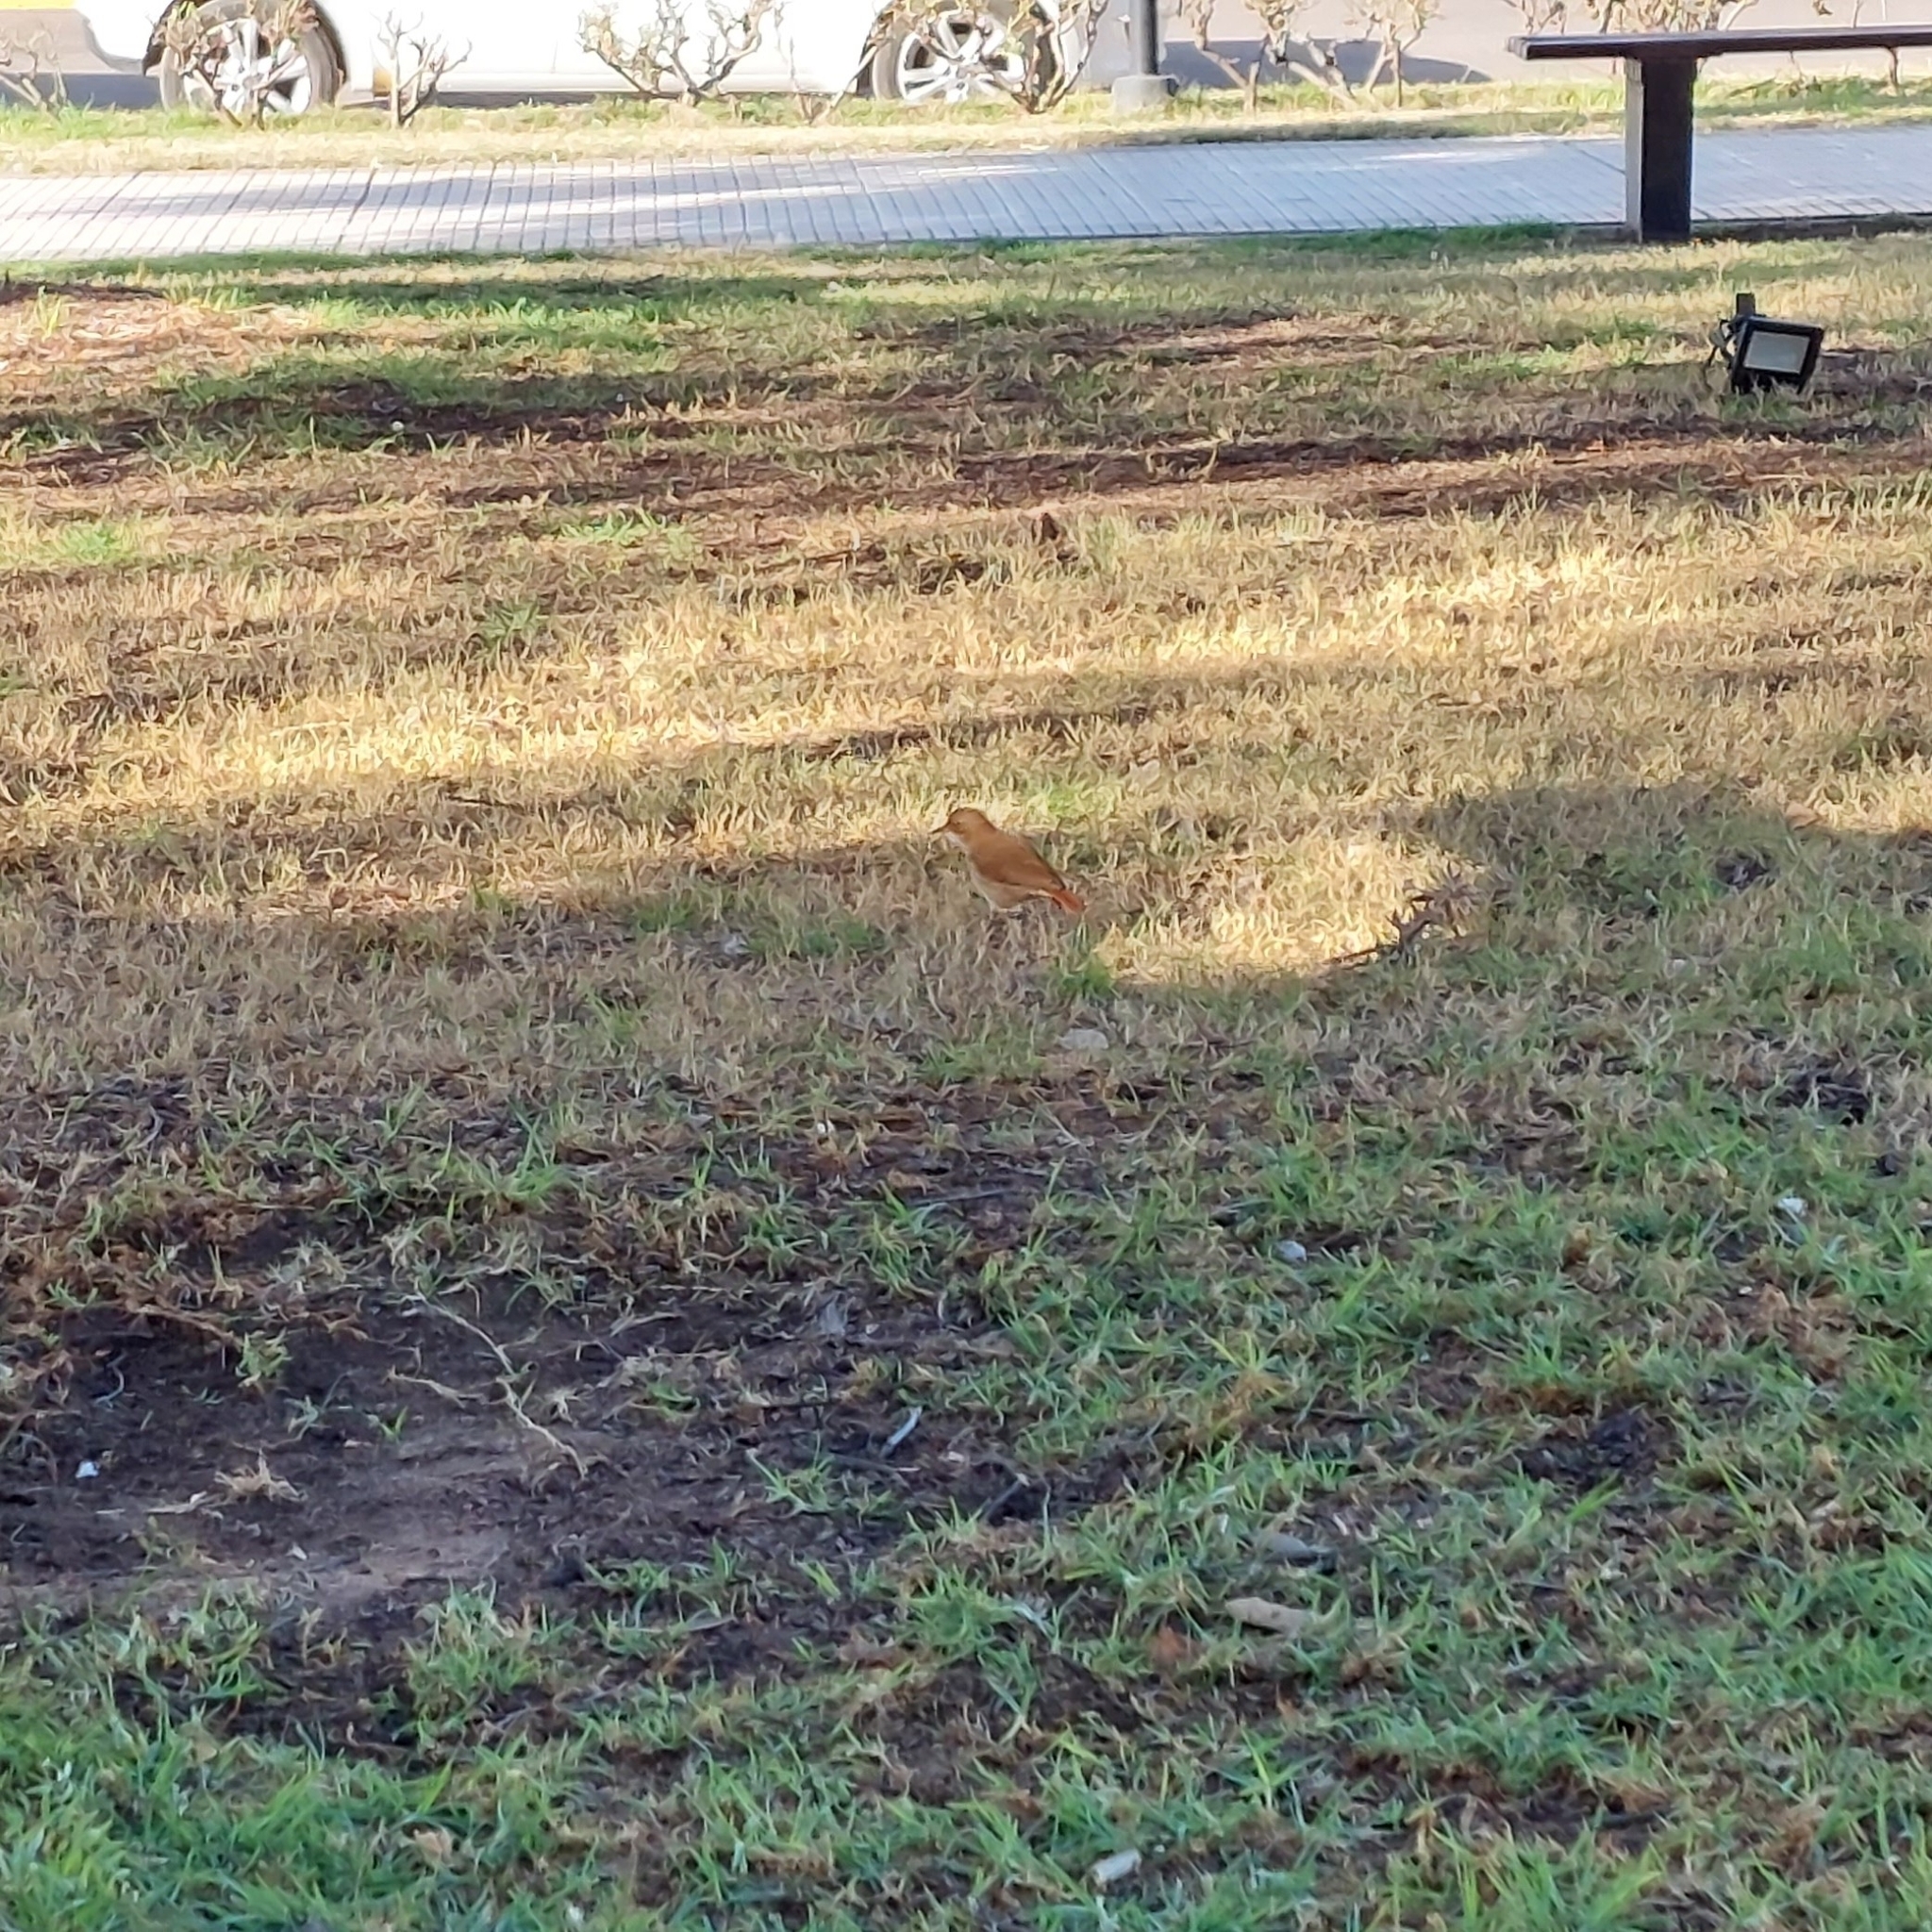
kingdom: Animalia
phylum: Chordata
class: Aves
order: Passeriformes
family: Furnariidae
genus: Furnarius
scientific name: Furnarius rufus
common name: Rufous hornero
